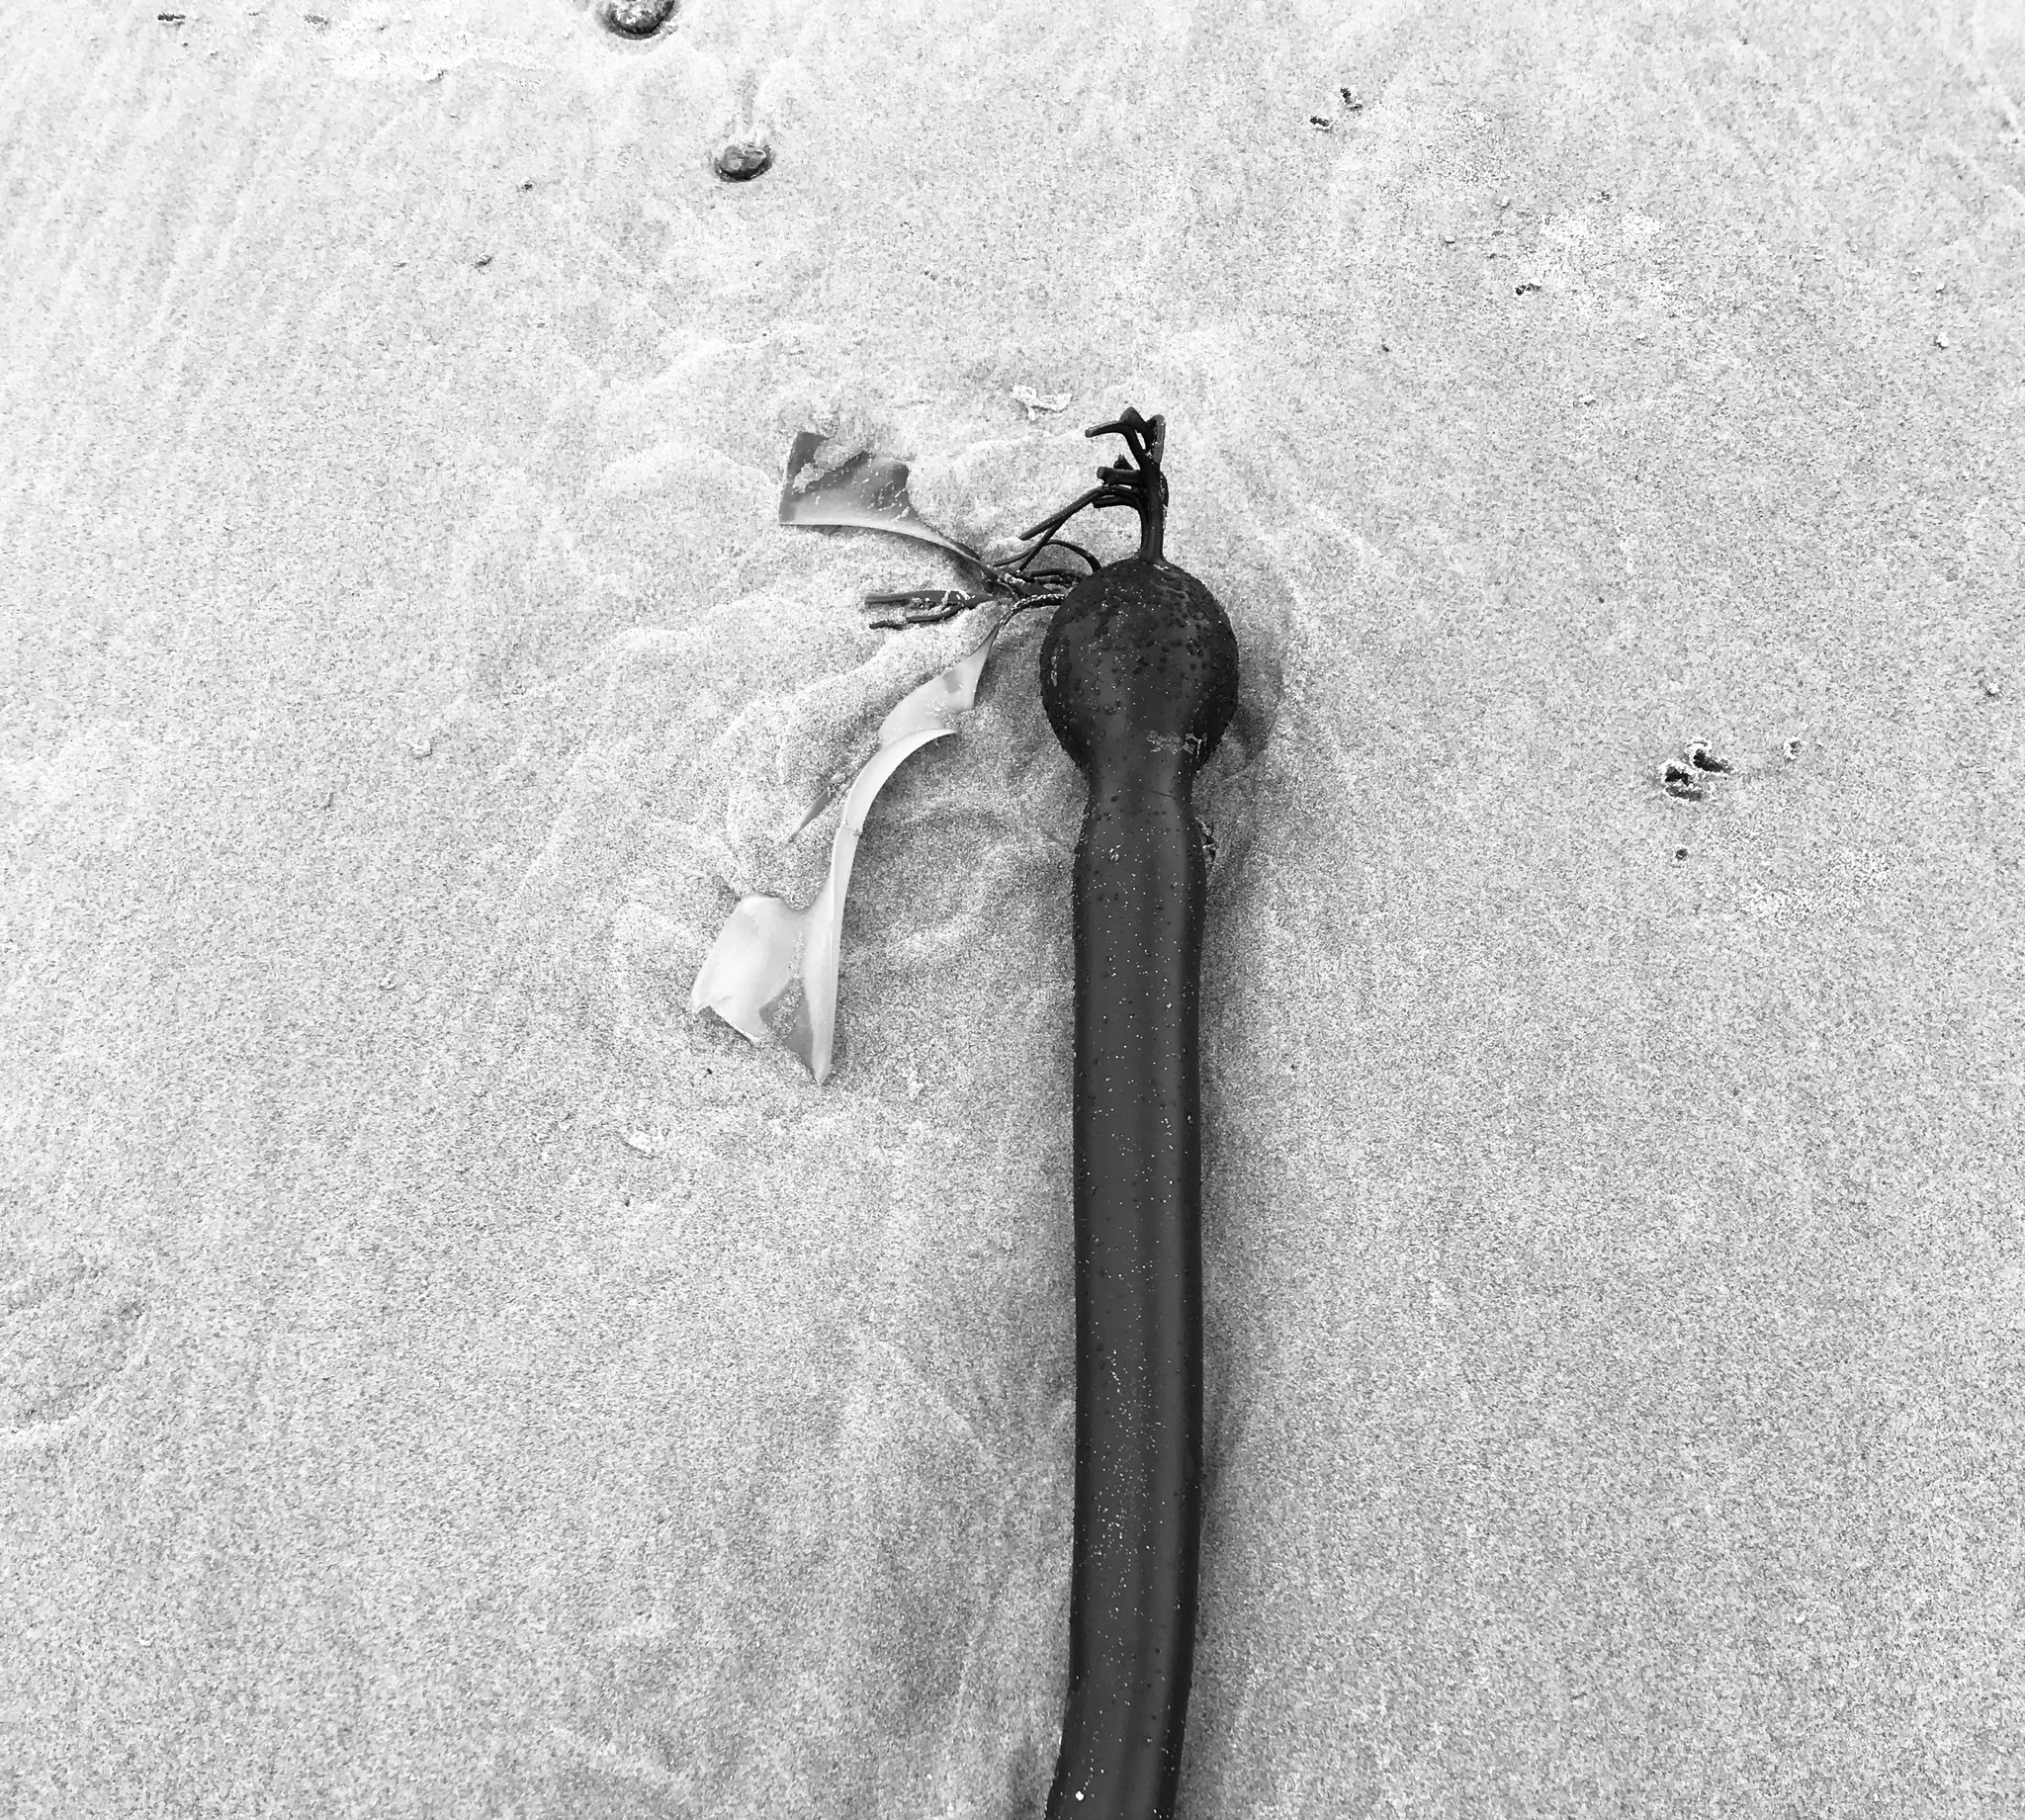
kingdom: Chromista
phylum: Ochrophyta
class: Phaeophyceae
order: Laminariales
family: Laminariaceae
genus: Nereocystis
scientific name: Nereocystis luetkeana
